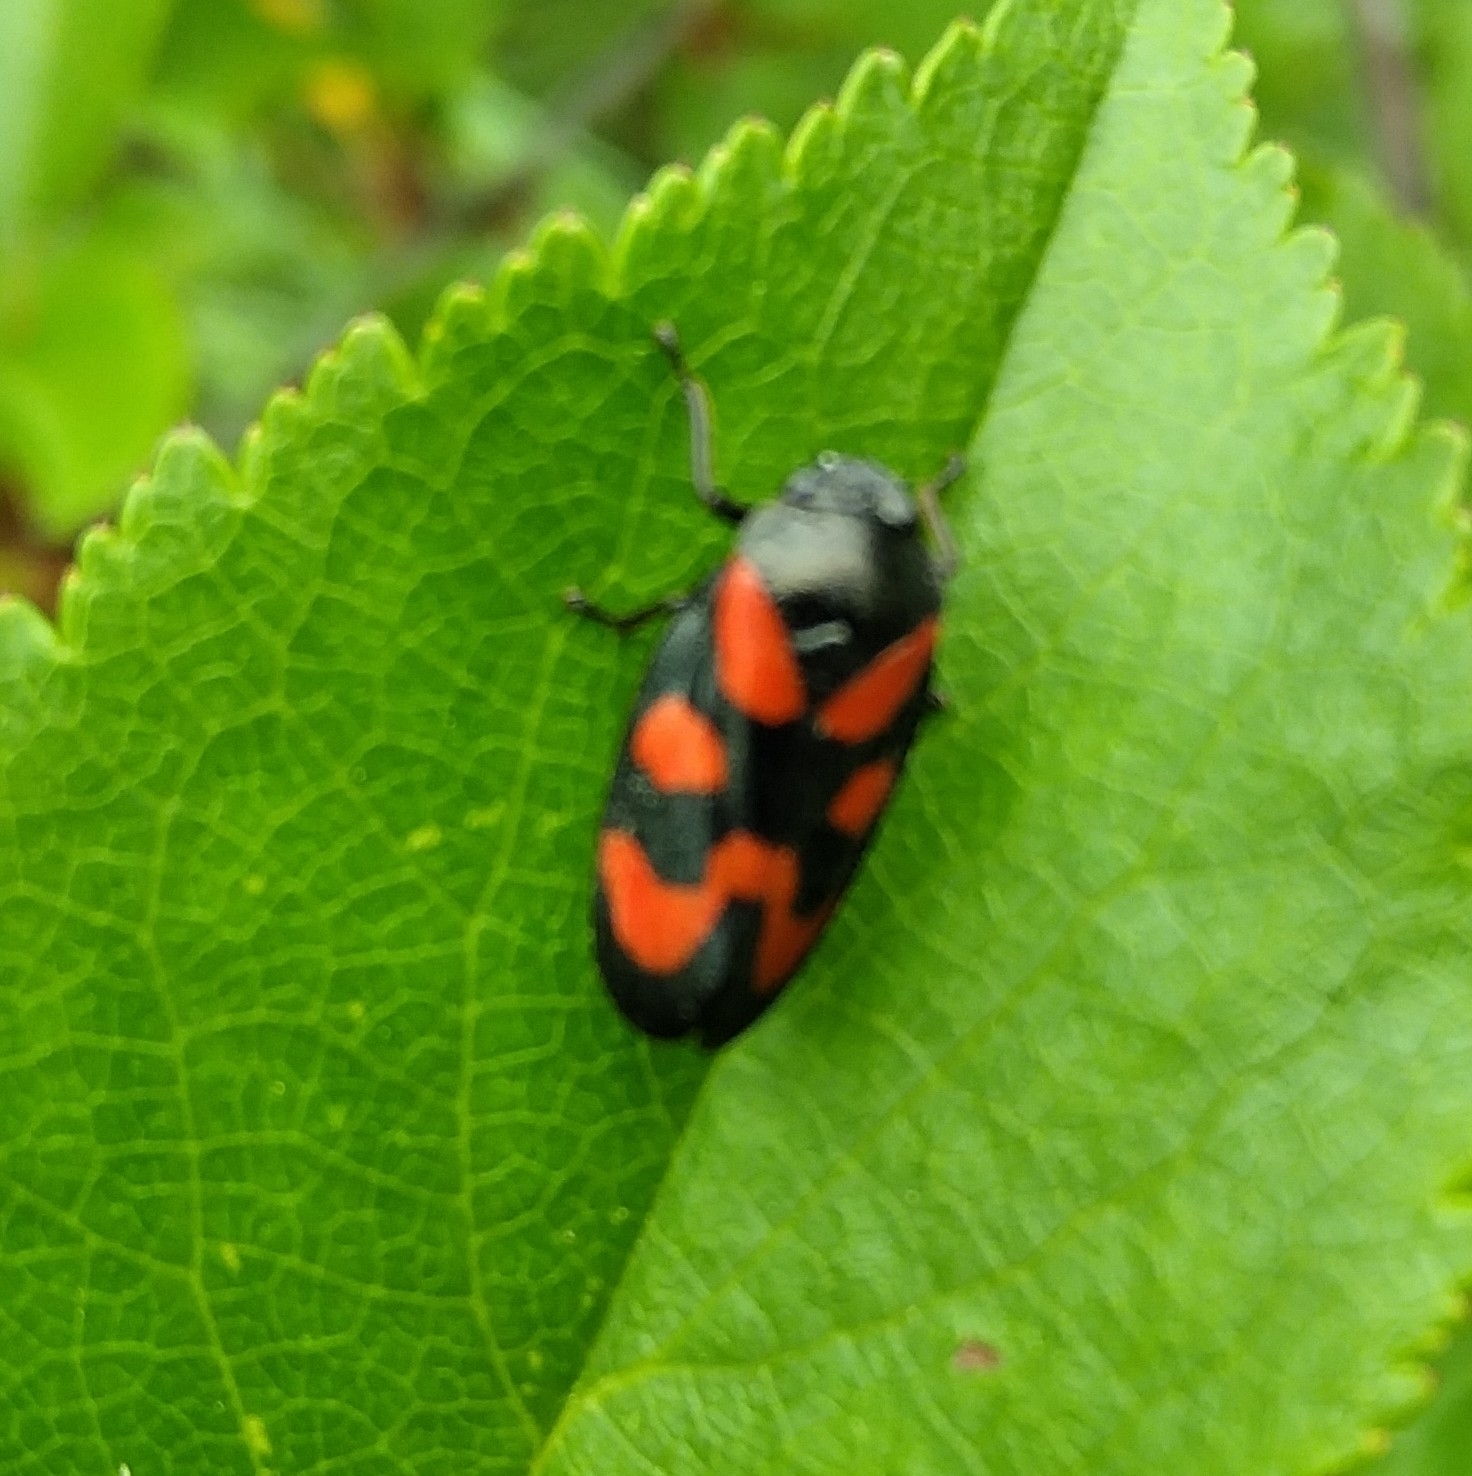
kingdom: Animalia
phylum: Arthropoda
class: Insecta
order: Hemiptera
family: Cercopidae
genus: Cercopis
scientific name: Cercopis vulnerata
